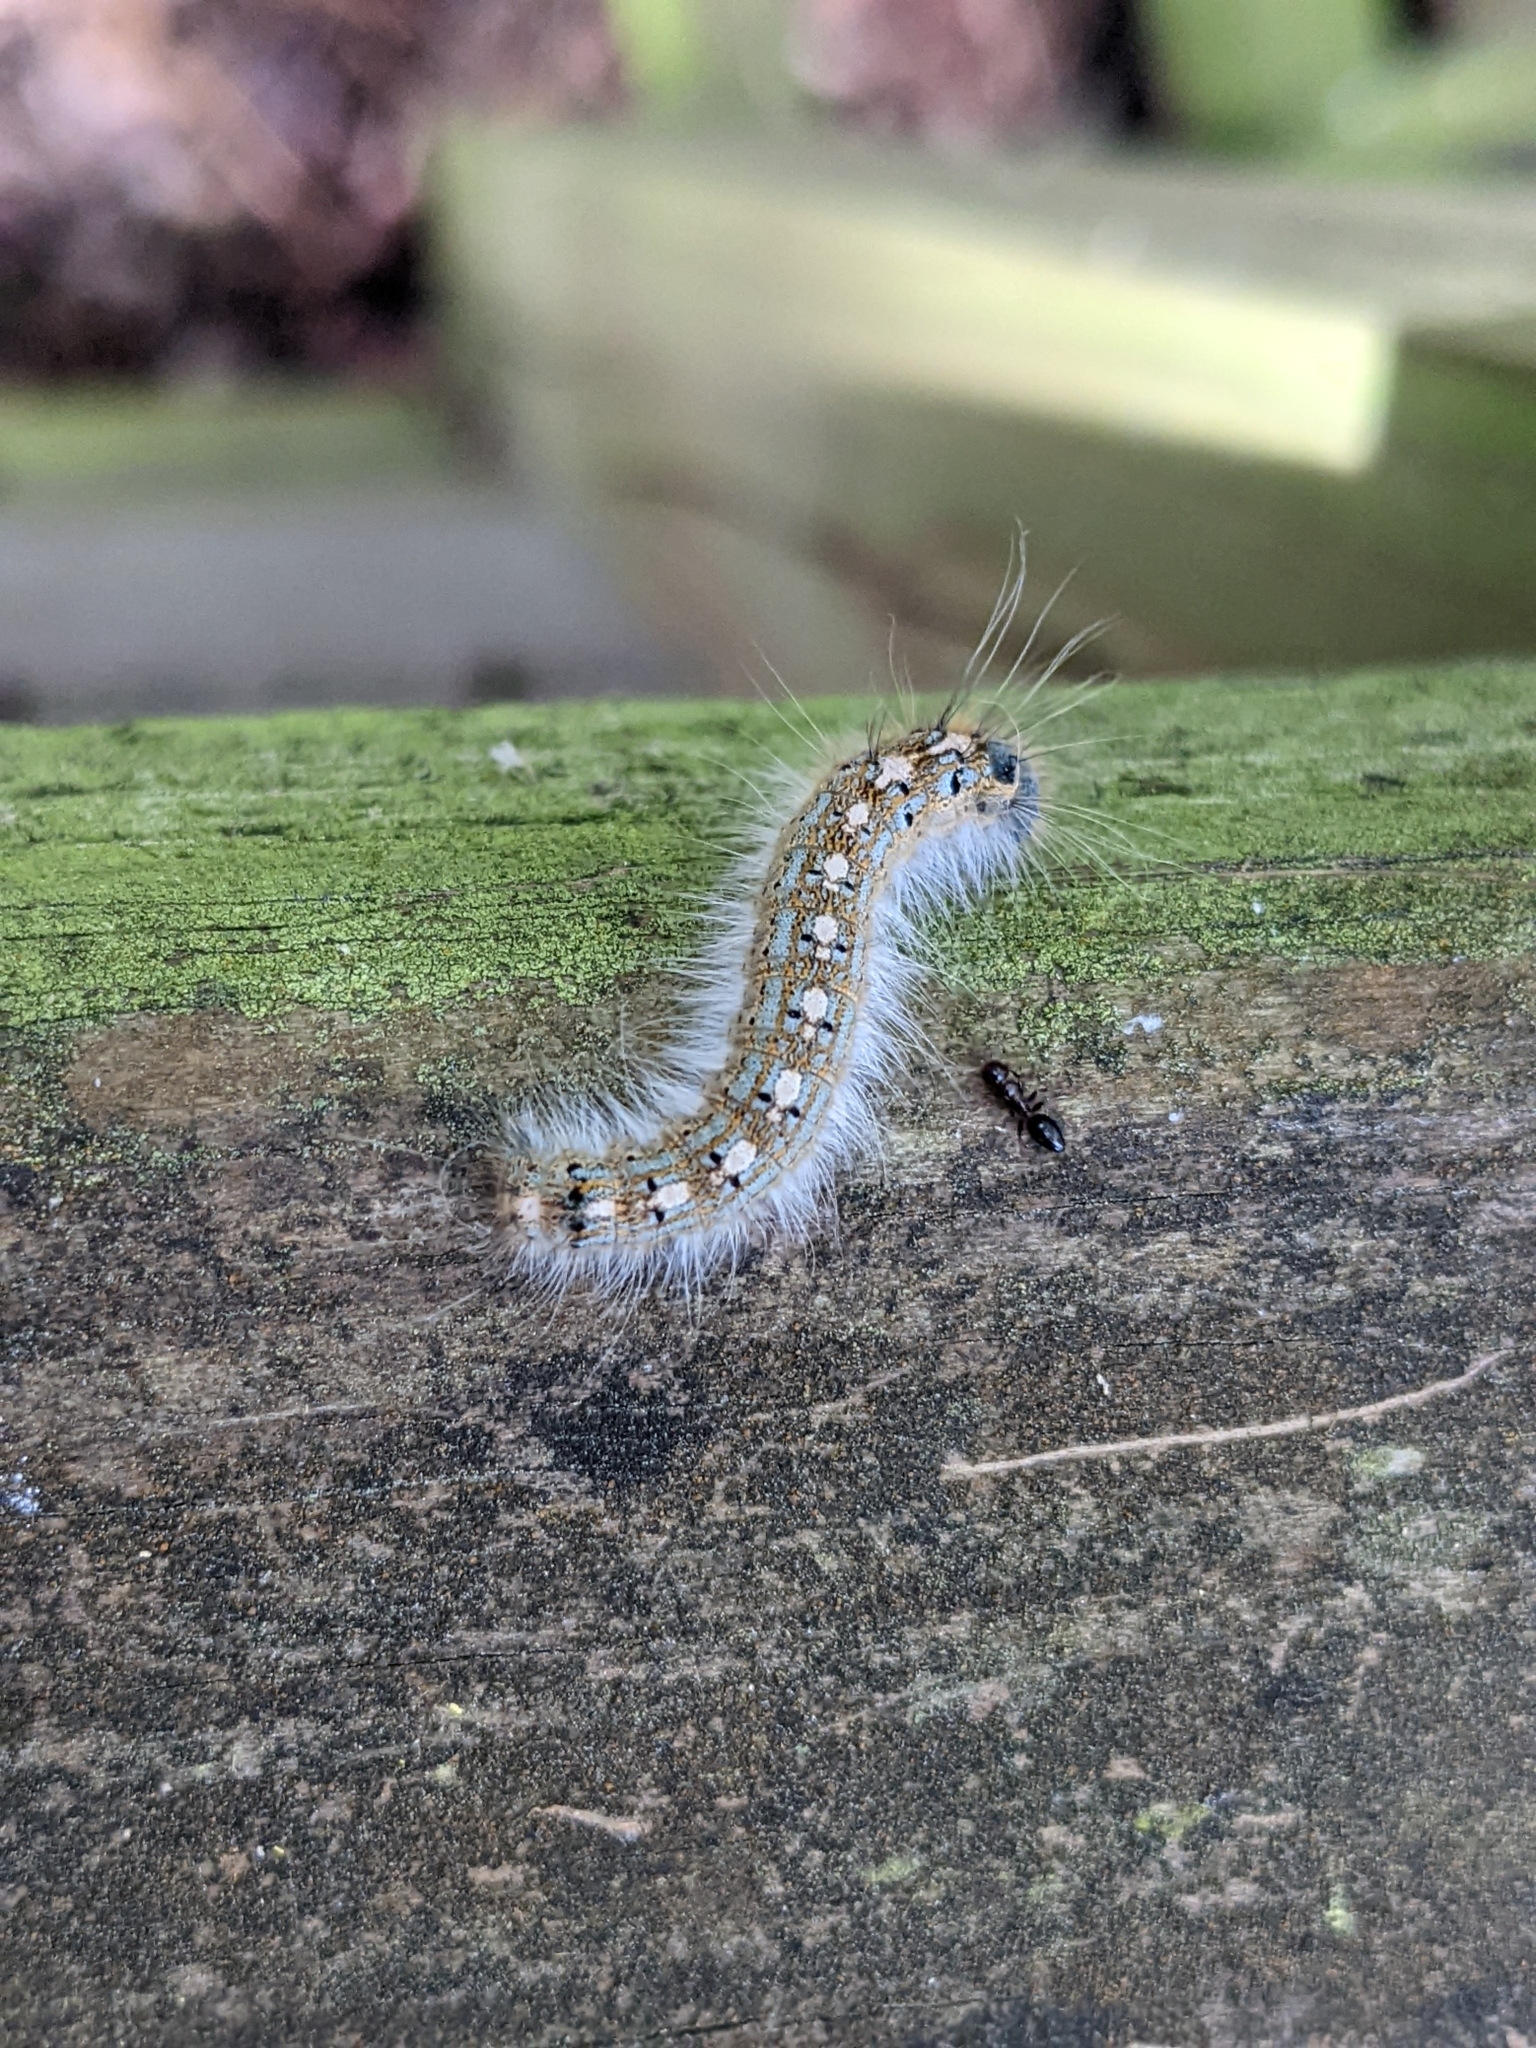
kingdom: Animalia
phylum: Arthropoda
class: Insecta
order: Lepidoptera
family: Lasiocampidae
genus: Malacosoma
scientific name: Malacosoma disstria
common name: Forest tent caterpillar
